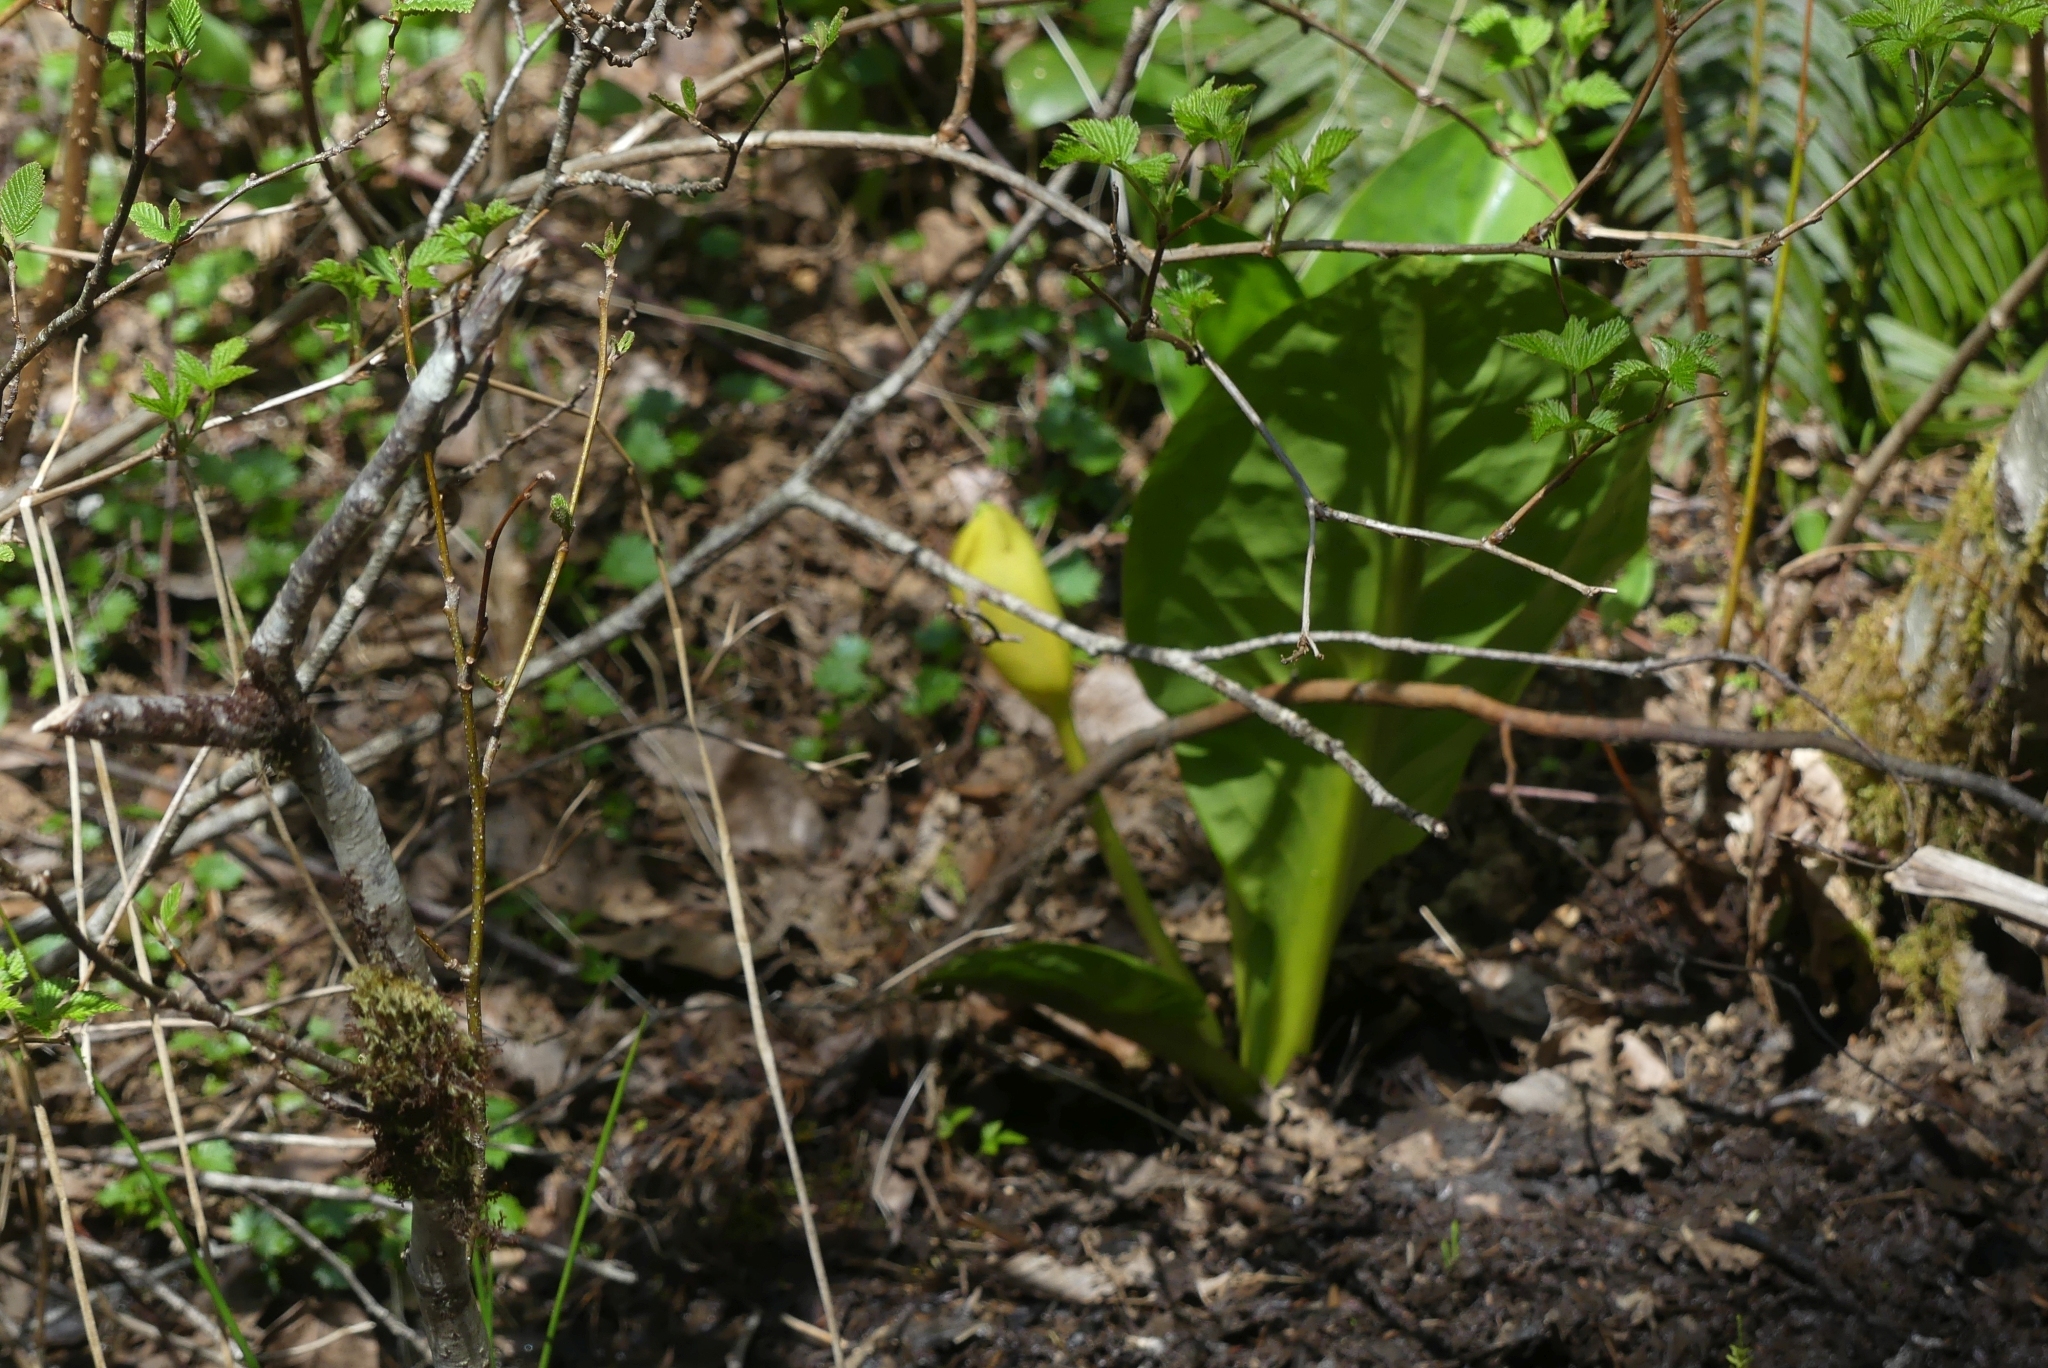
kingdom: Plantae
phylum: Tracheophyta
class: Liliopsida
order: Alismatales
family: Araceae
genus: Lysichiton
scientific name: Lysichiton americanus
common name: American skunk cabbage
